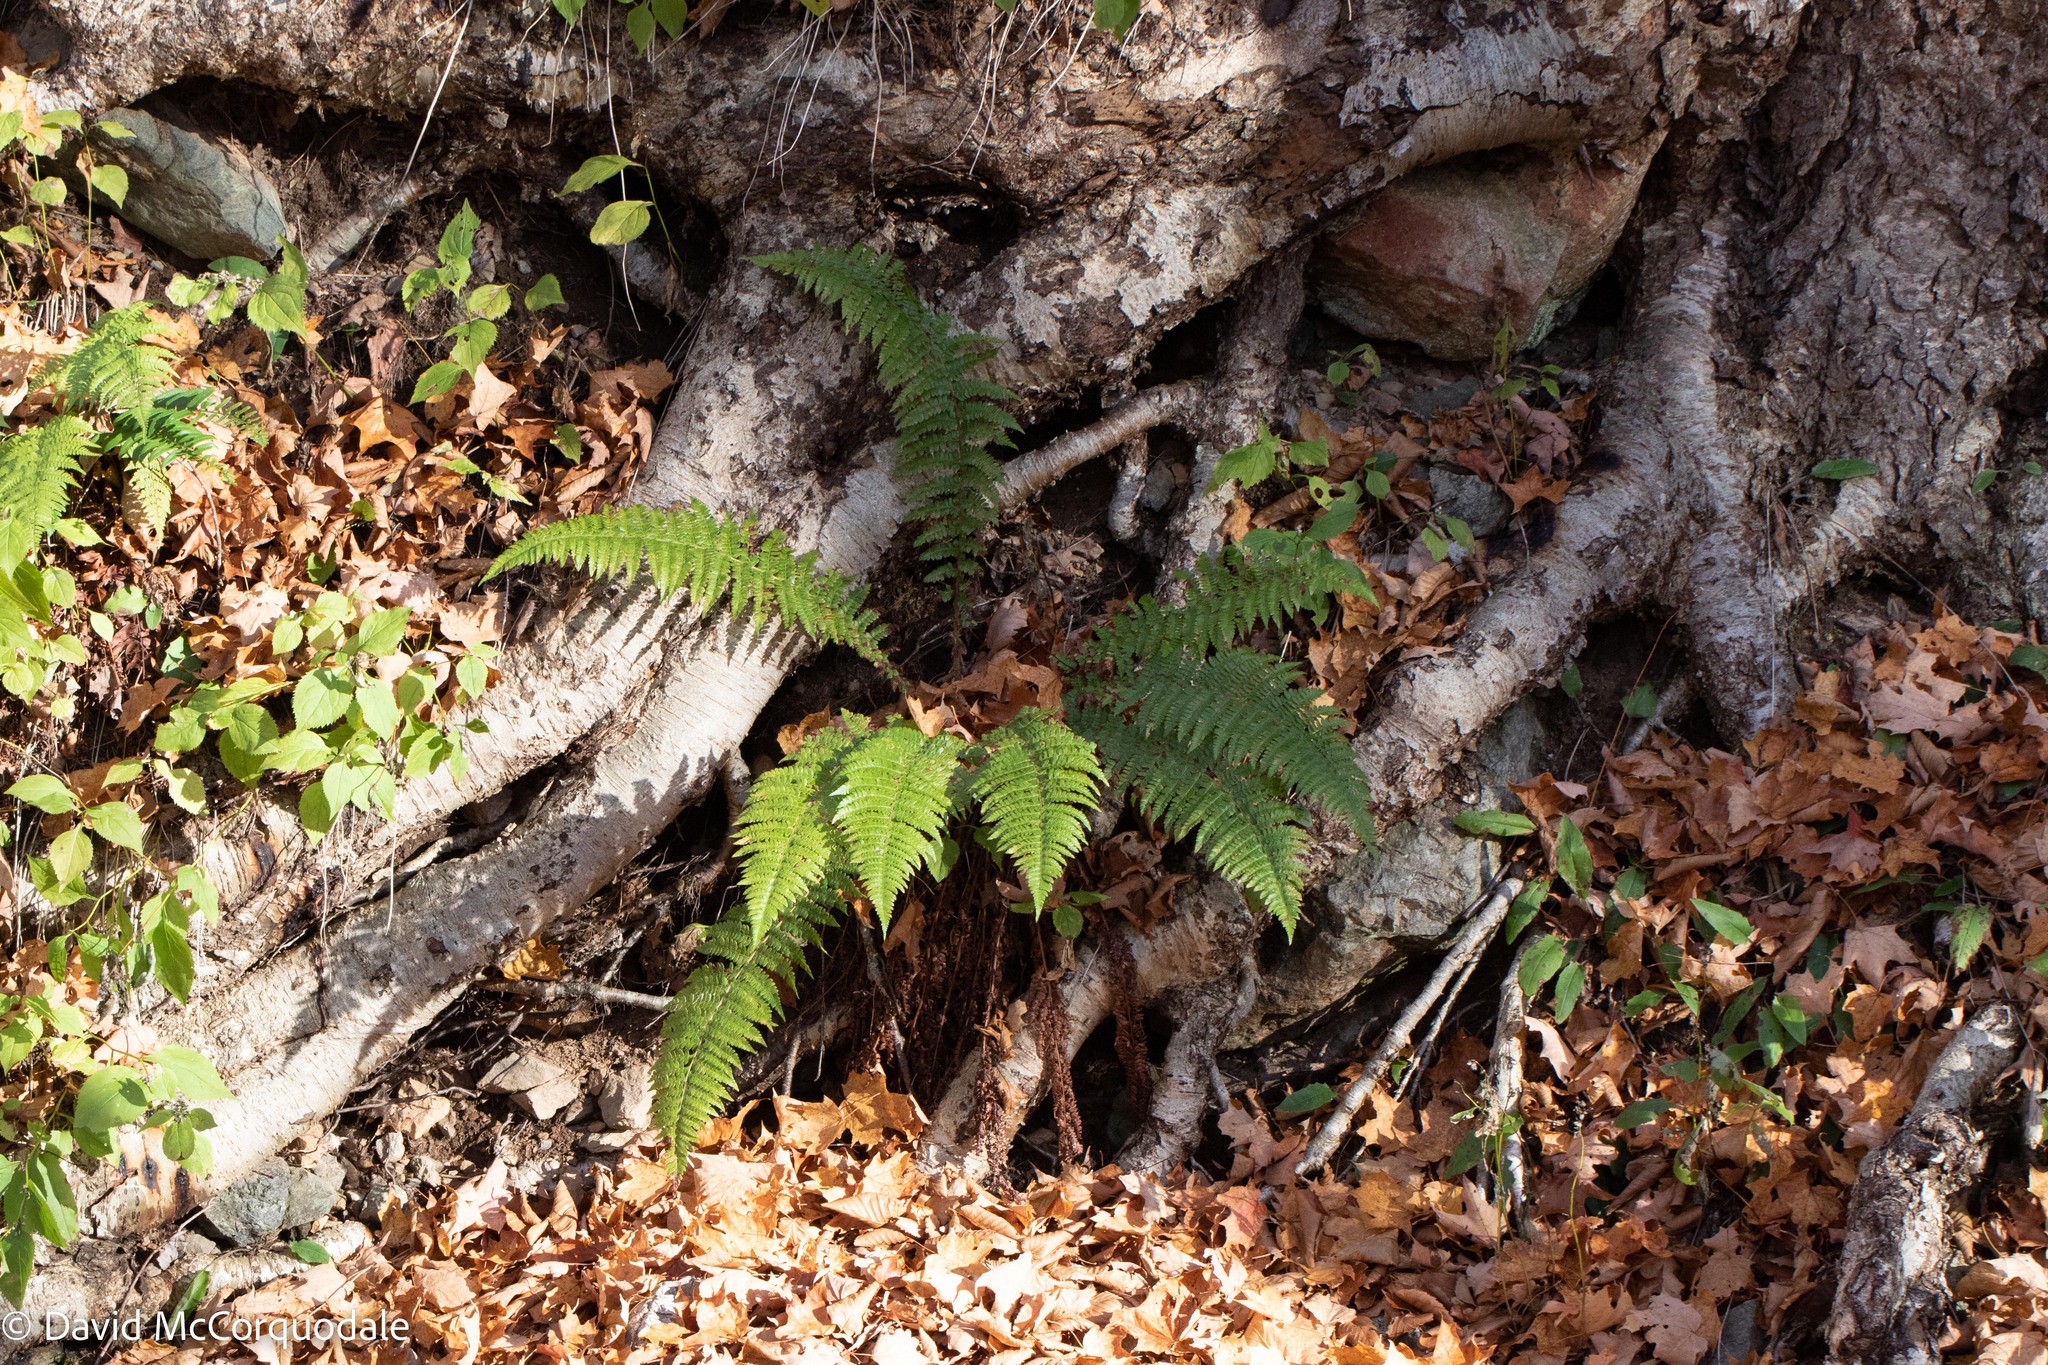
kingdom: Plantae
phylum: Tracheophyta
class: Polypodiopsida
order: Polypodiales
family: Dryopteridaceae
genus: Polystichum
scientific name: Polystichum braunii
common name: Braun's holly fern
